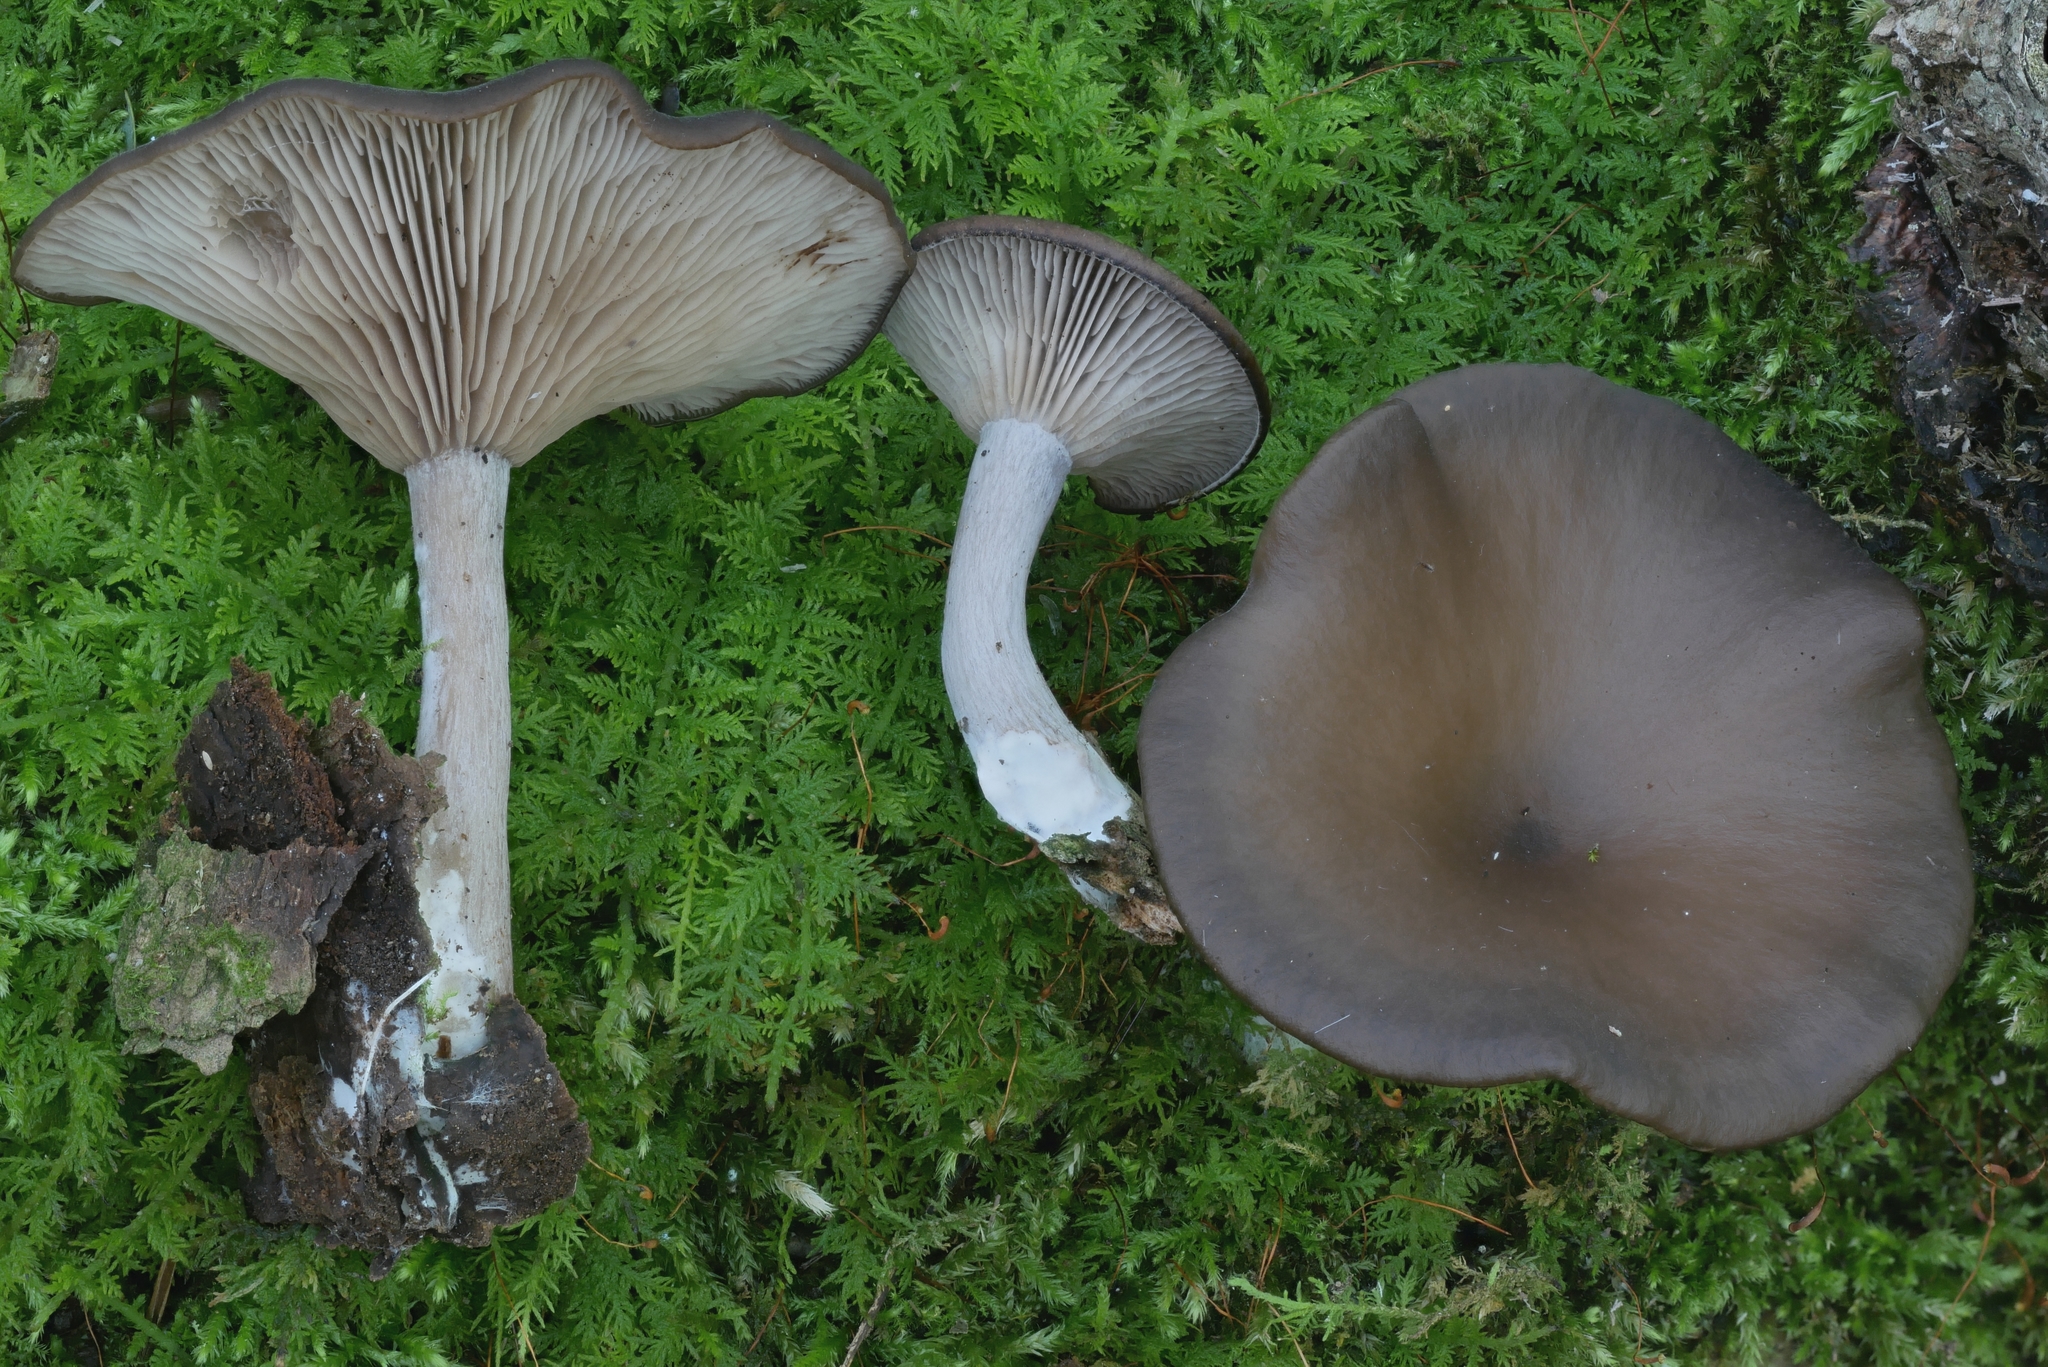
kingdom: Fungi
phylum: Basidiomycota
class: Agaricomycetes
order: Agaricales
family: Pseudoclitocybaceae
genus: Pseudoclitocybe
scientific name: Pseudoclitocybe cyathiformis
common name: Goblet
